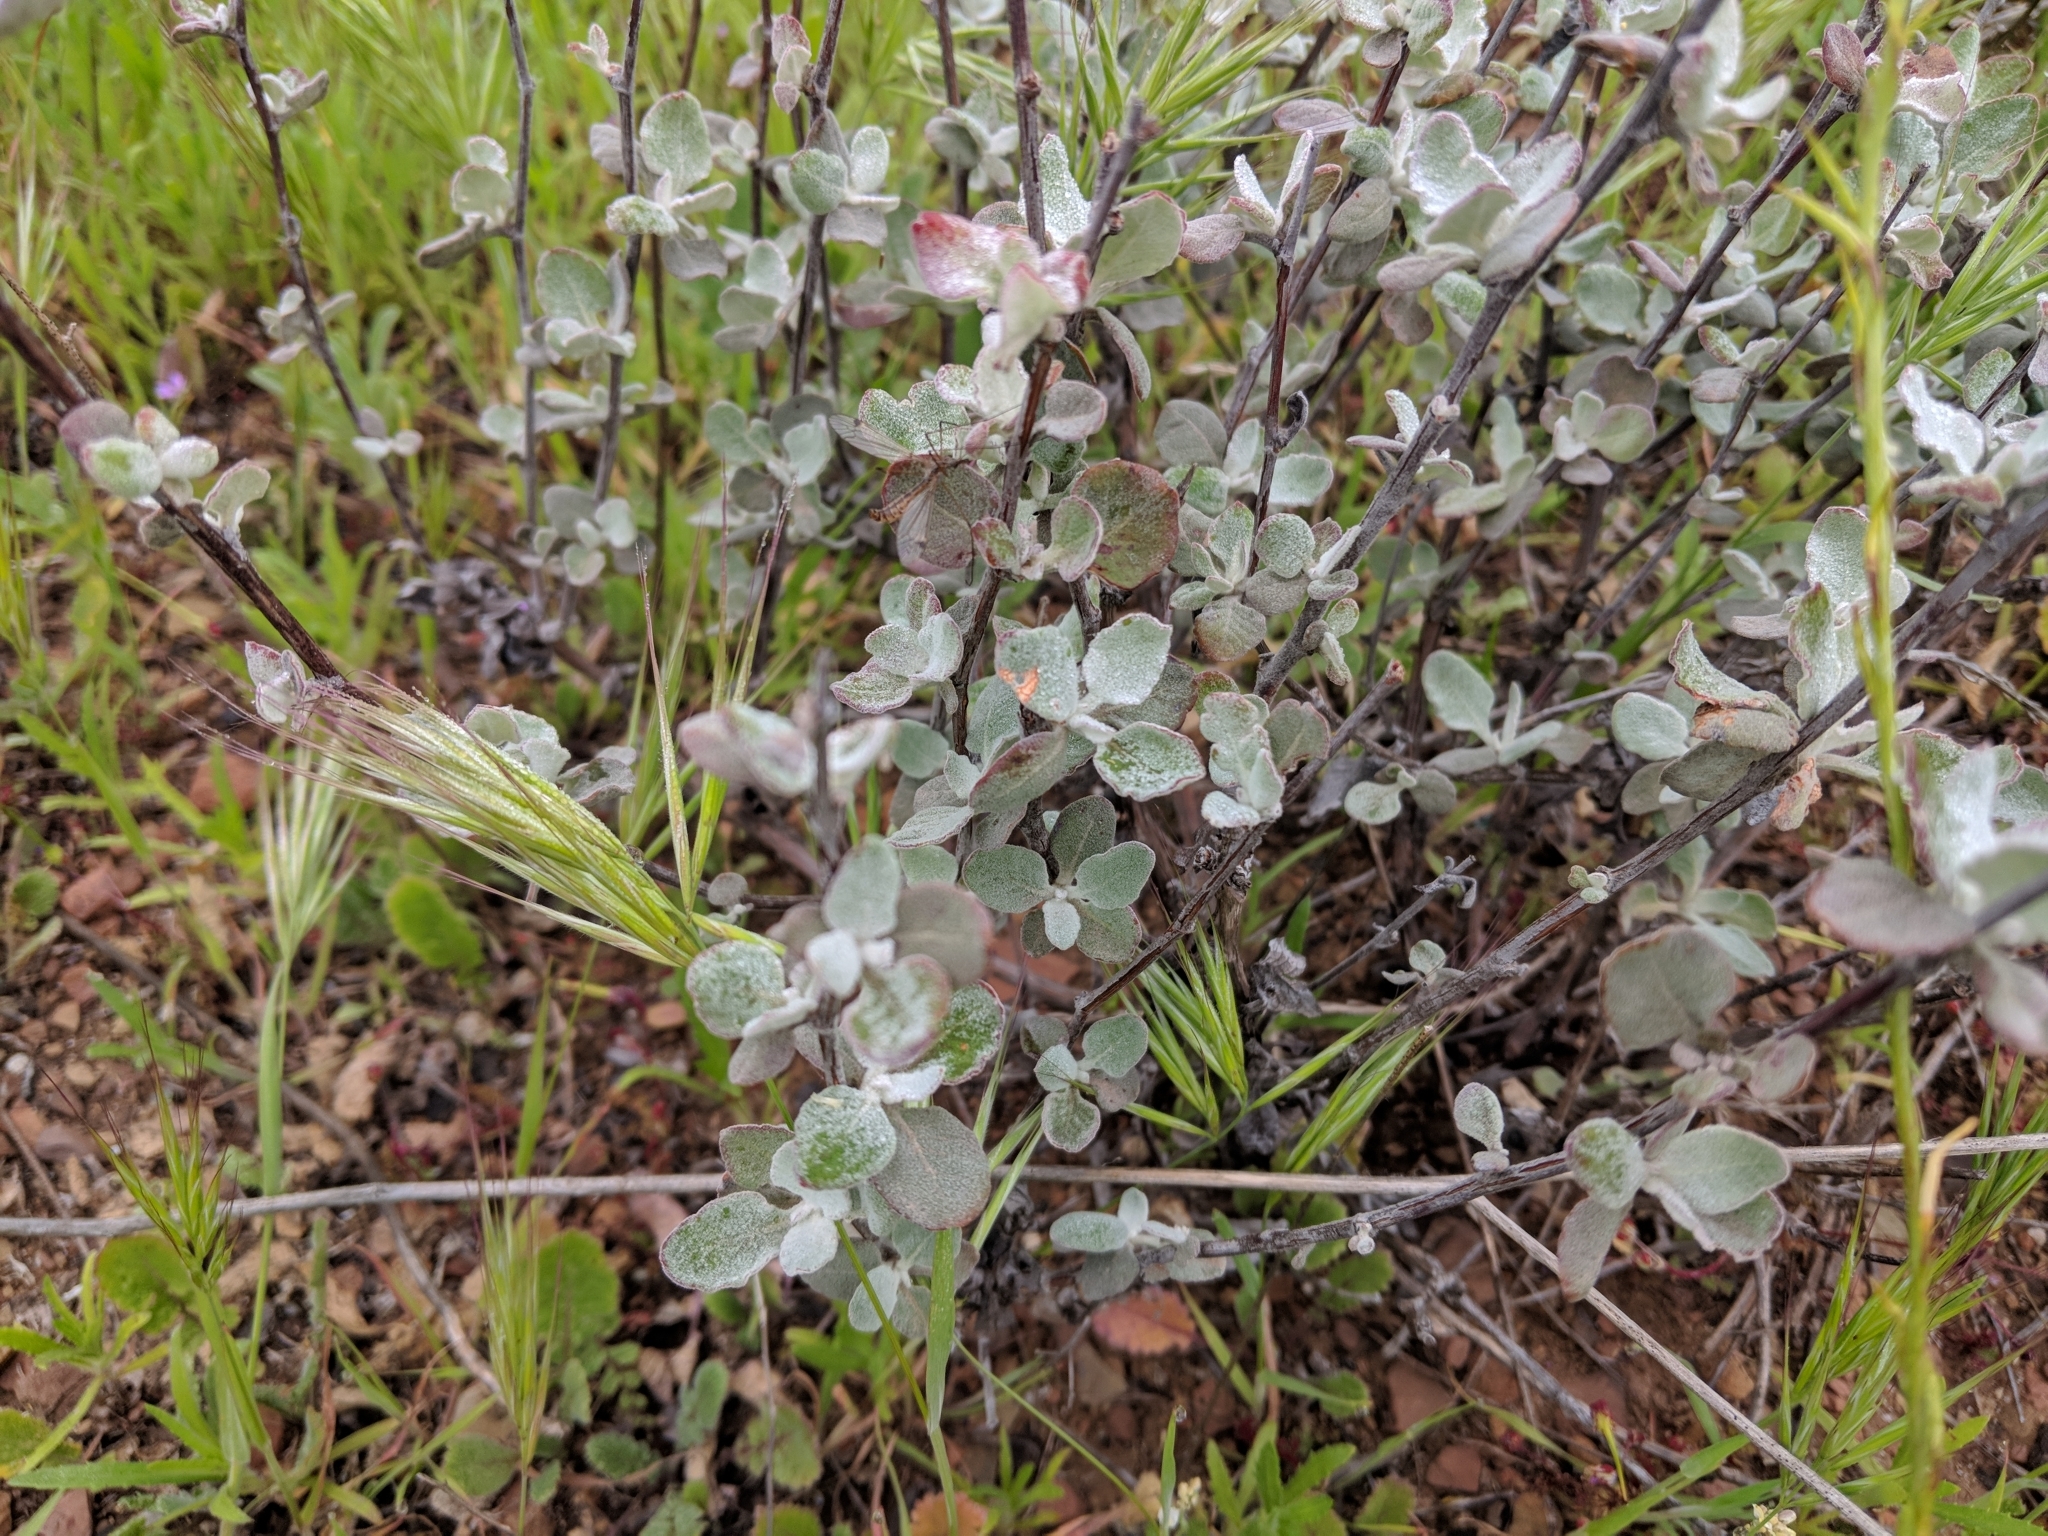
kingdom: Plantae
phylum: Tracheophyta
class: Magnoliopsida
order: Caryophyllales
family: Polygonaceae
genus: Eriogonum
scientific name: Eriogonum cinereum
